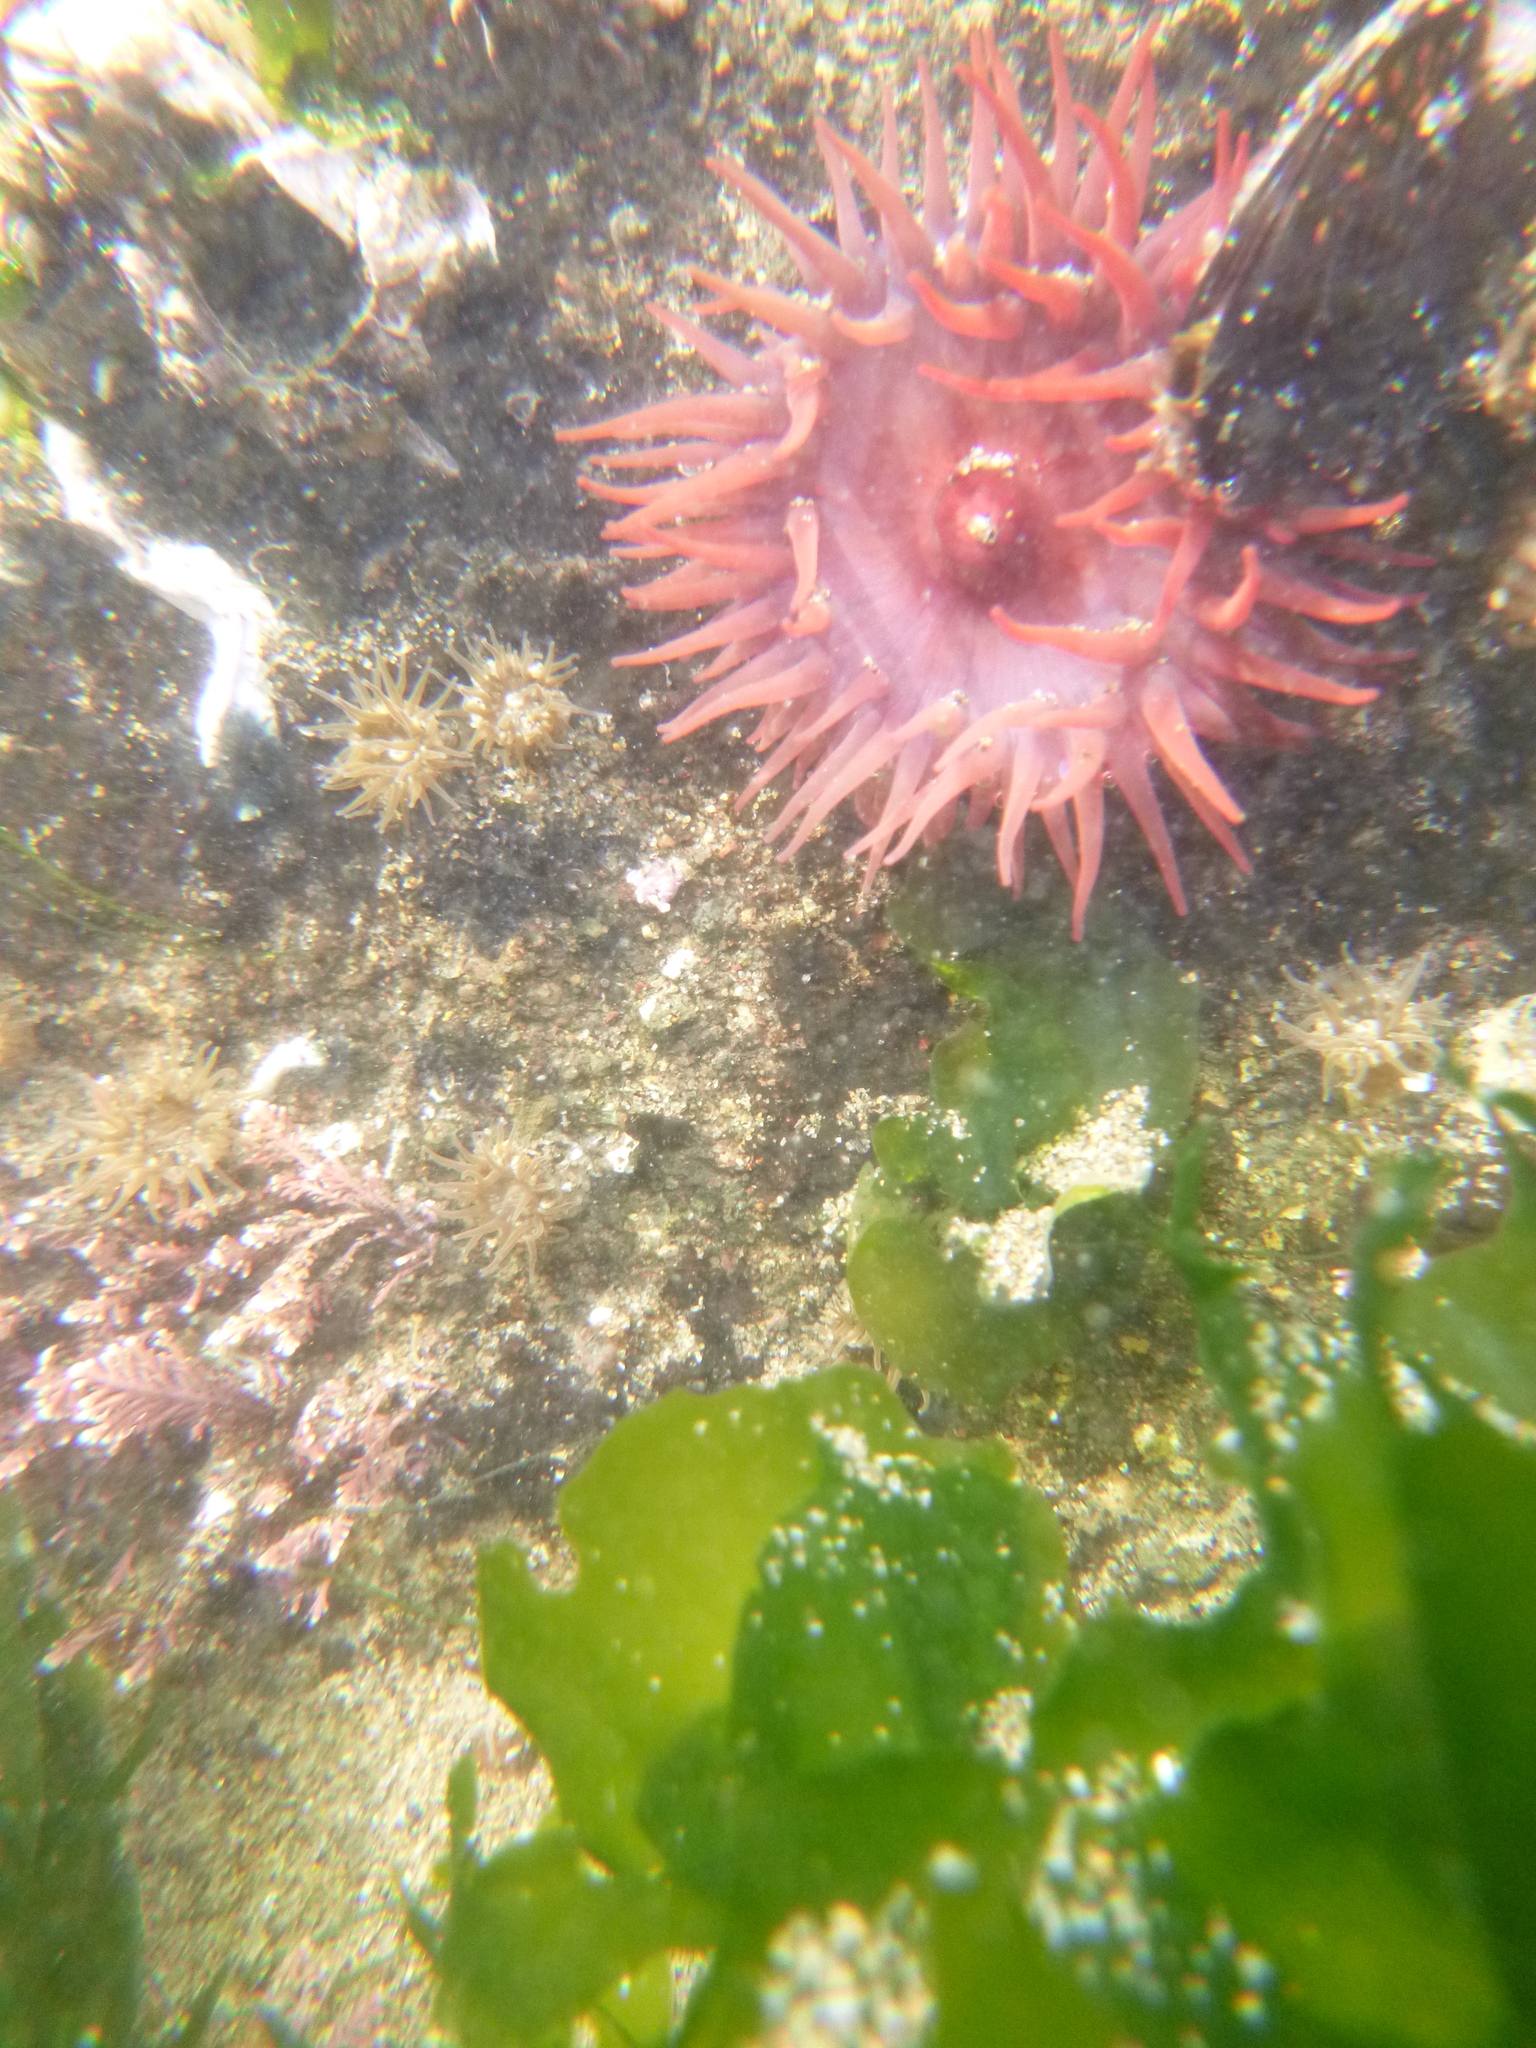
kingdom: Animalia
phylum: Cnidaria
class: Anthozoa
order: Actiniaria
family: Actiniidae
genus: Actinia
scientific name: Actinia tenebrosa
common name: Waratah anemone
